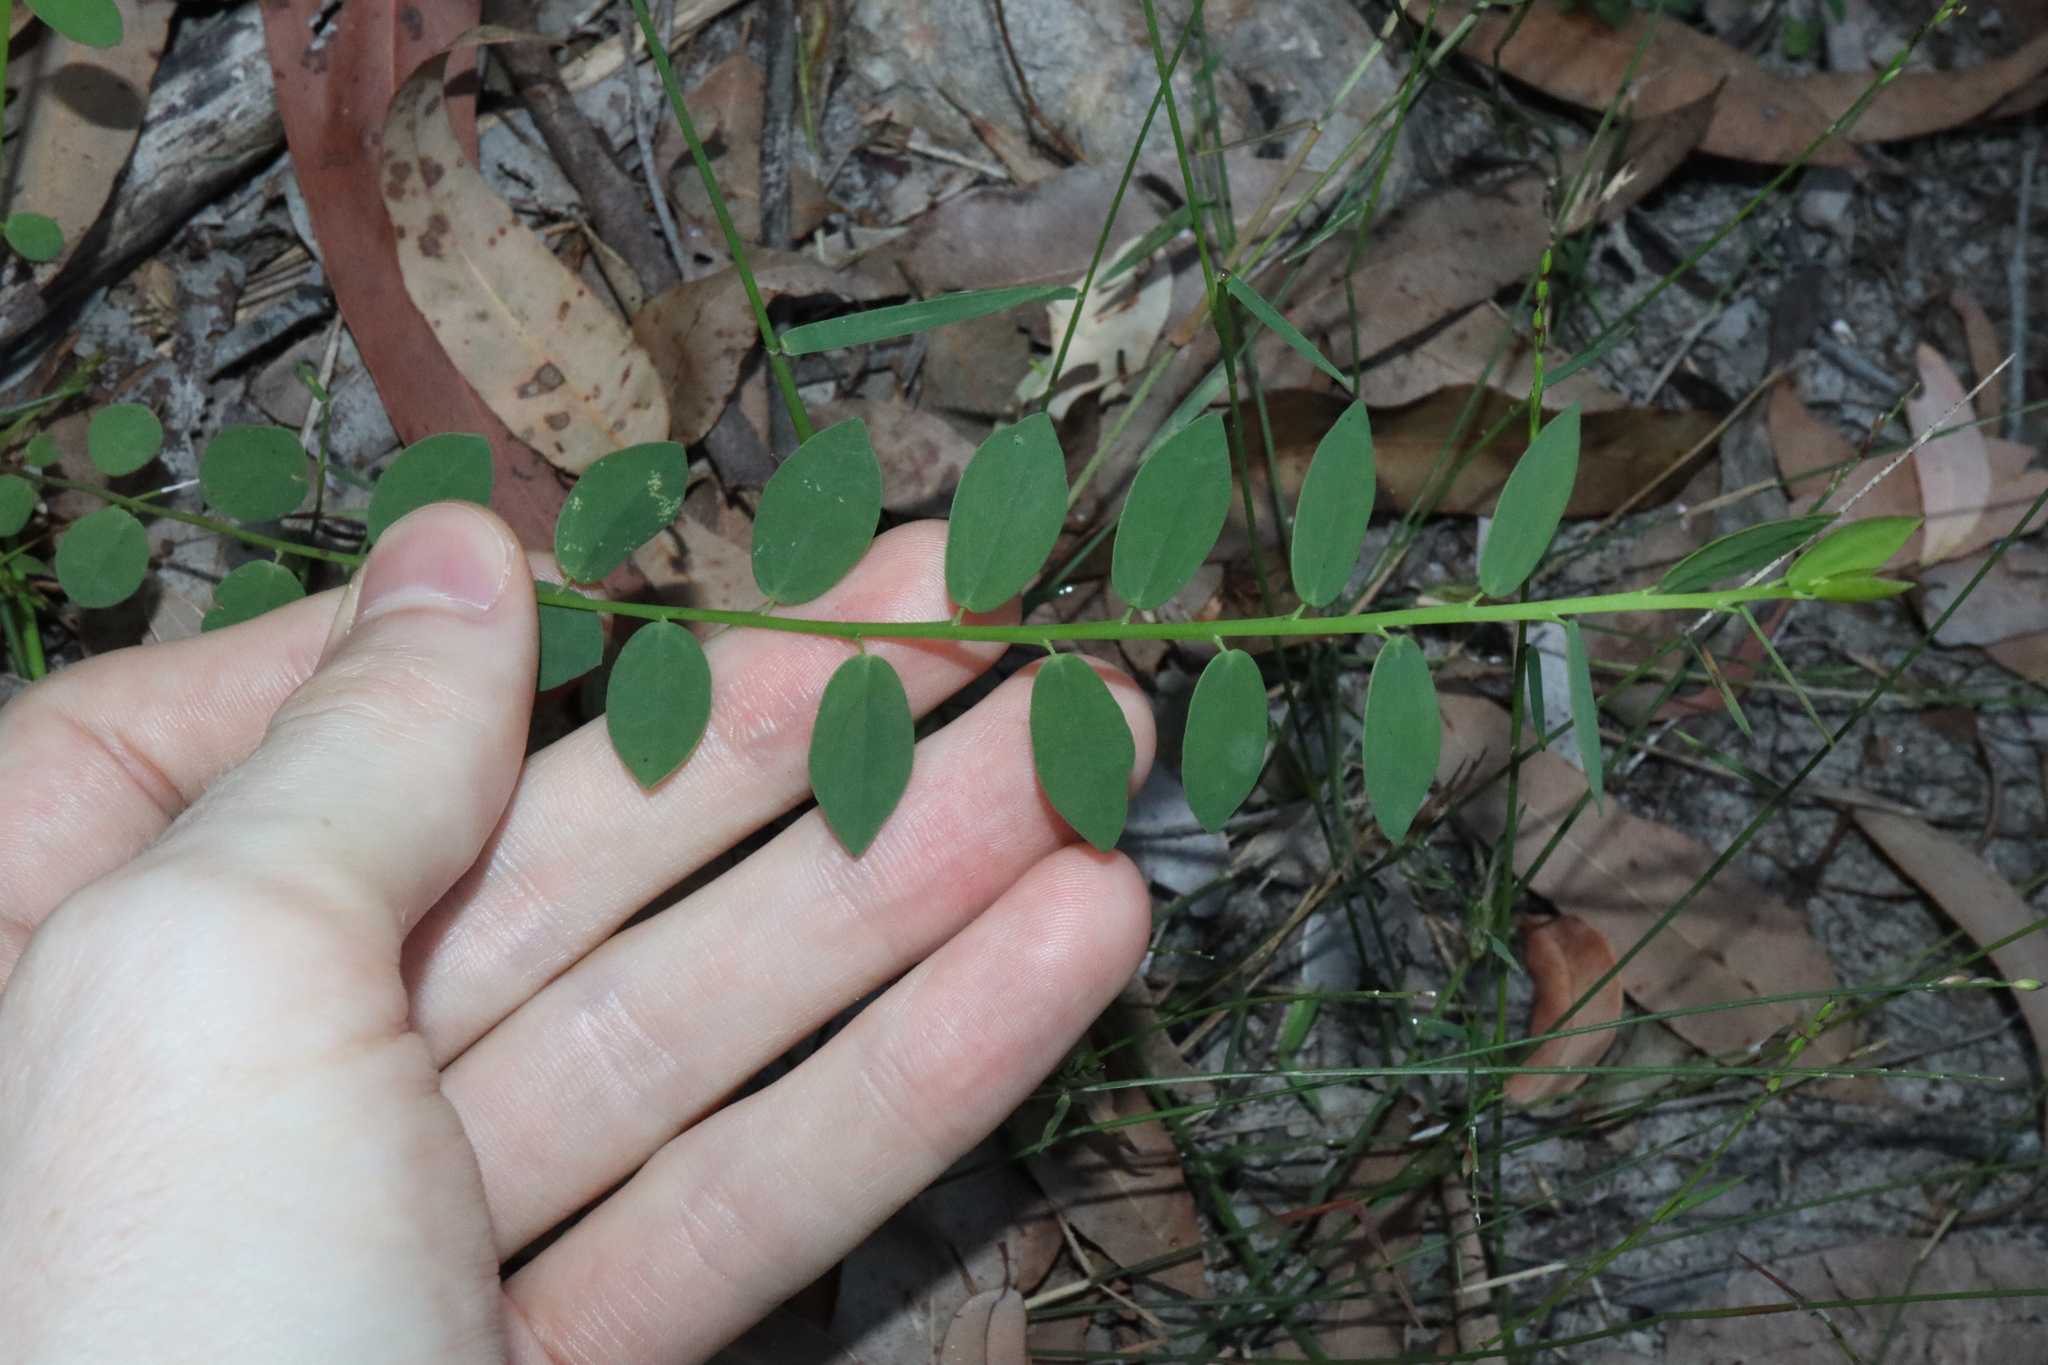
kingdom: Plantae
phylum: Tracheophyta
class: Magnoliopsida
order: Fabales
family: Fabaceae
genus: Bossiaea
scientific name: Bossiaea heterophylla
